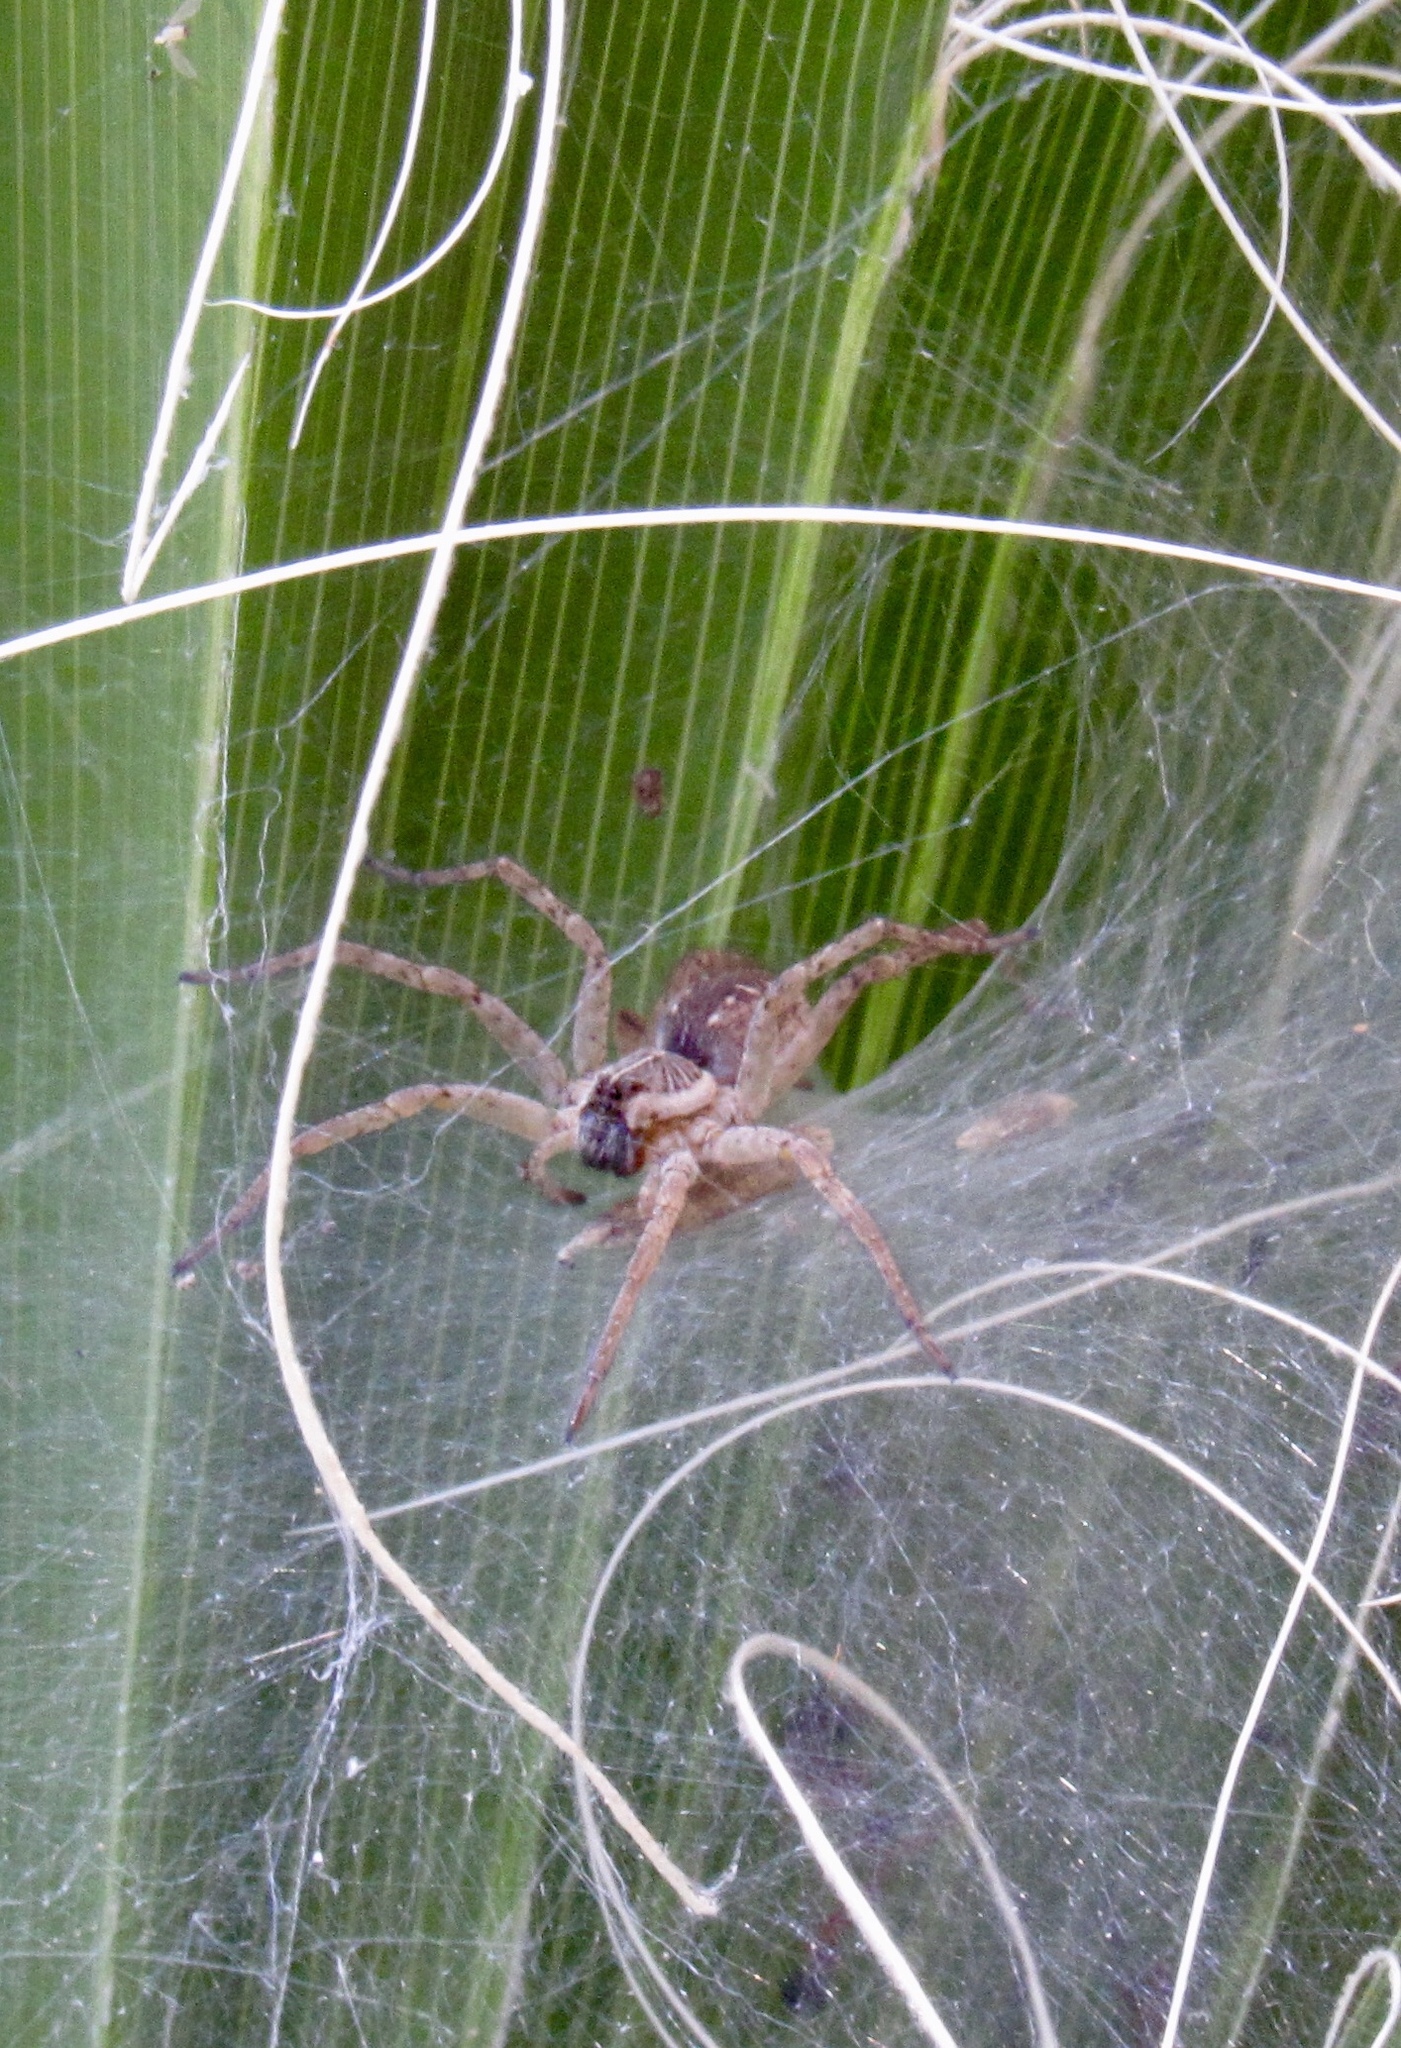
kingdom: Animalia
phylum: Arthropoda
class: Arachnida
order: Araneae
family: Lycosidae
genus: Sosippus
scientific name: Sosippus californicus
